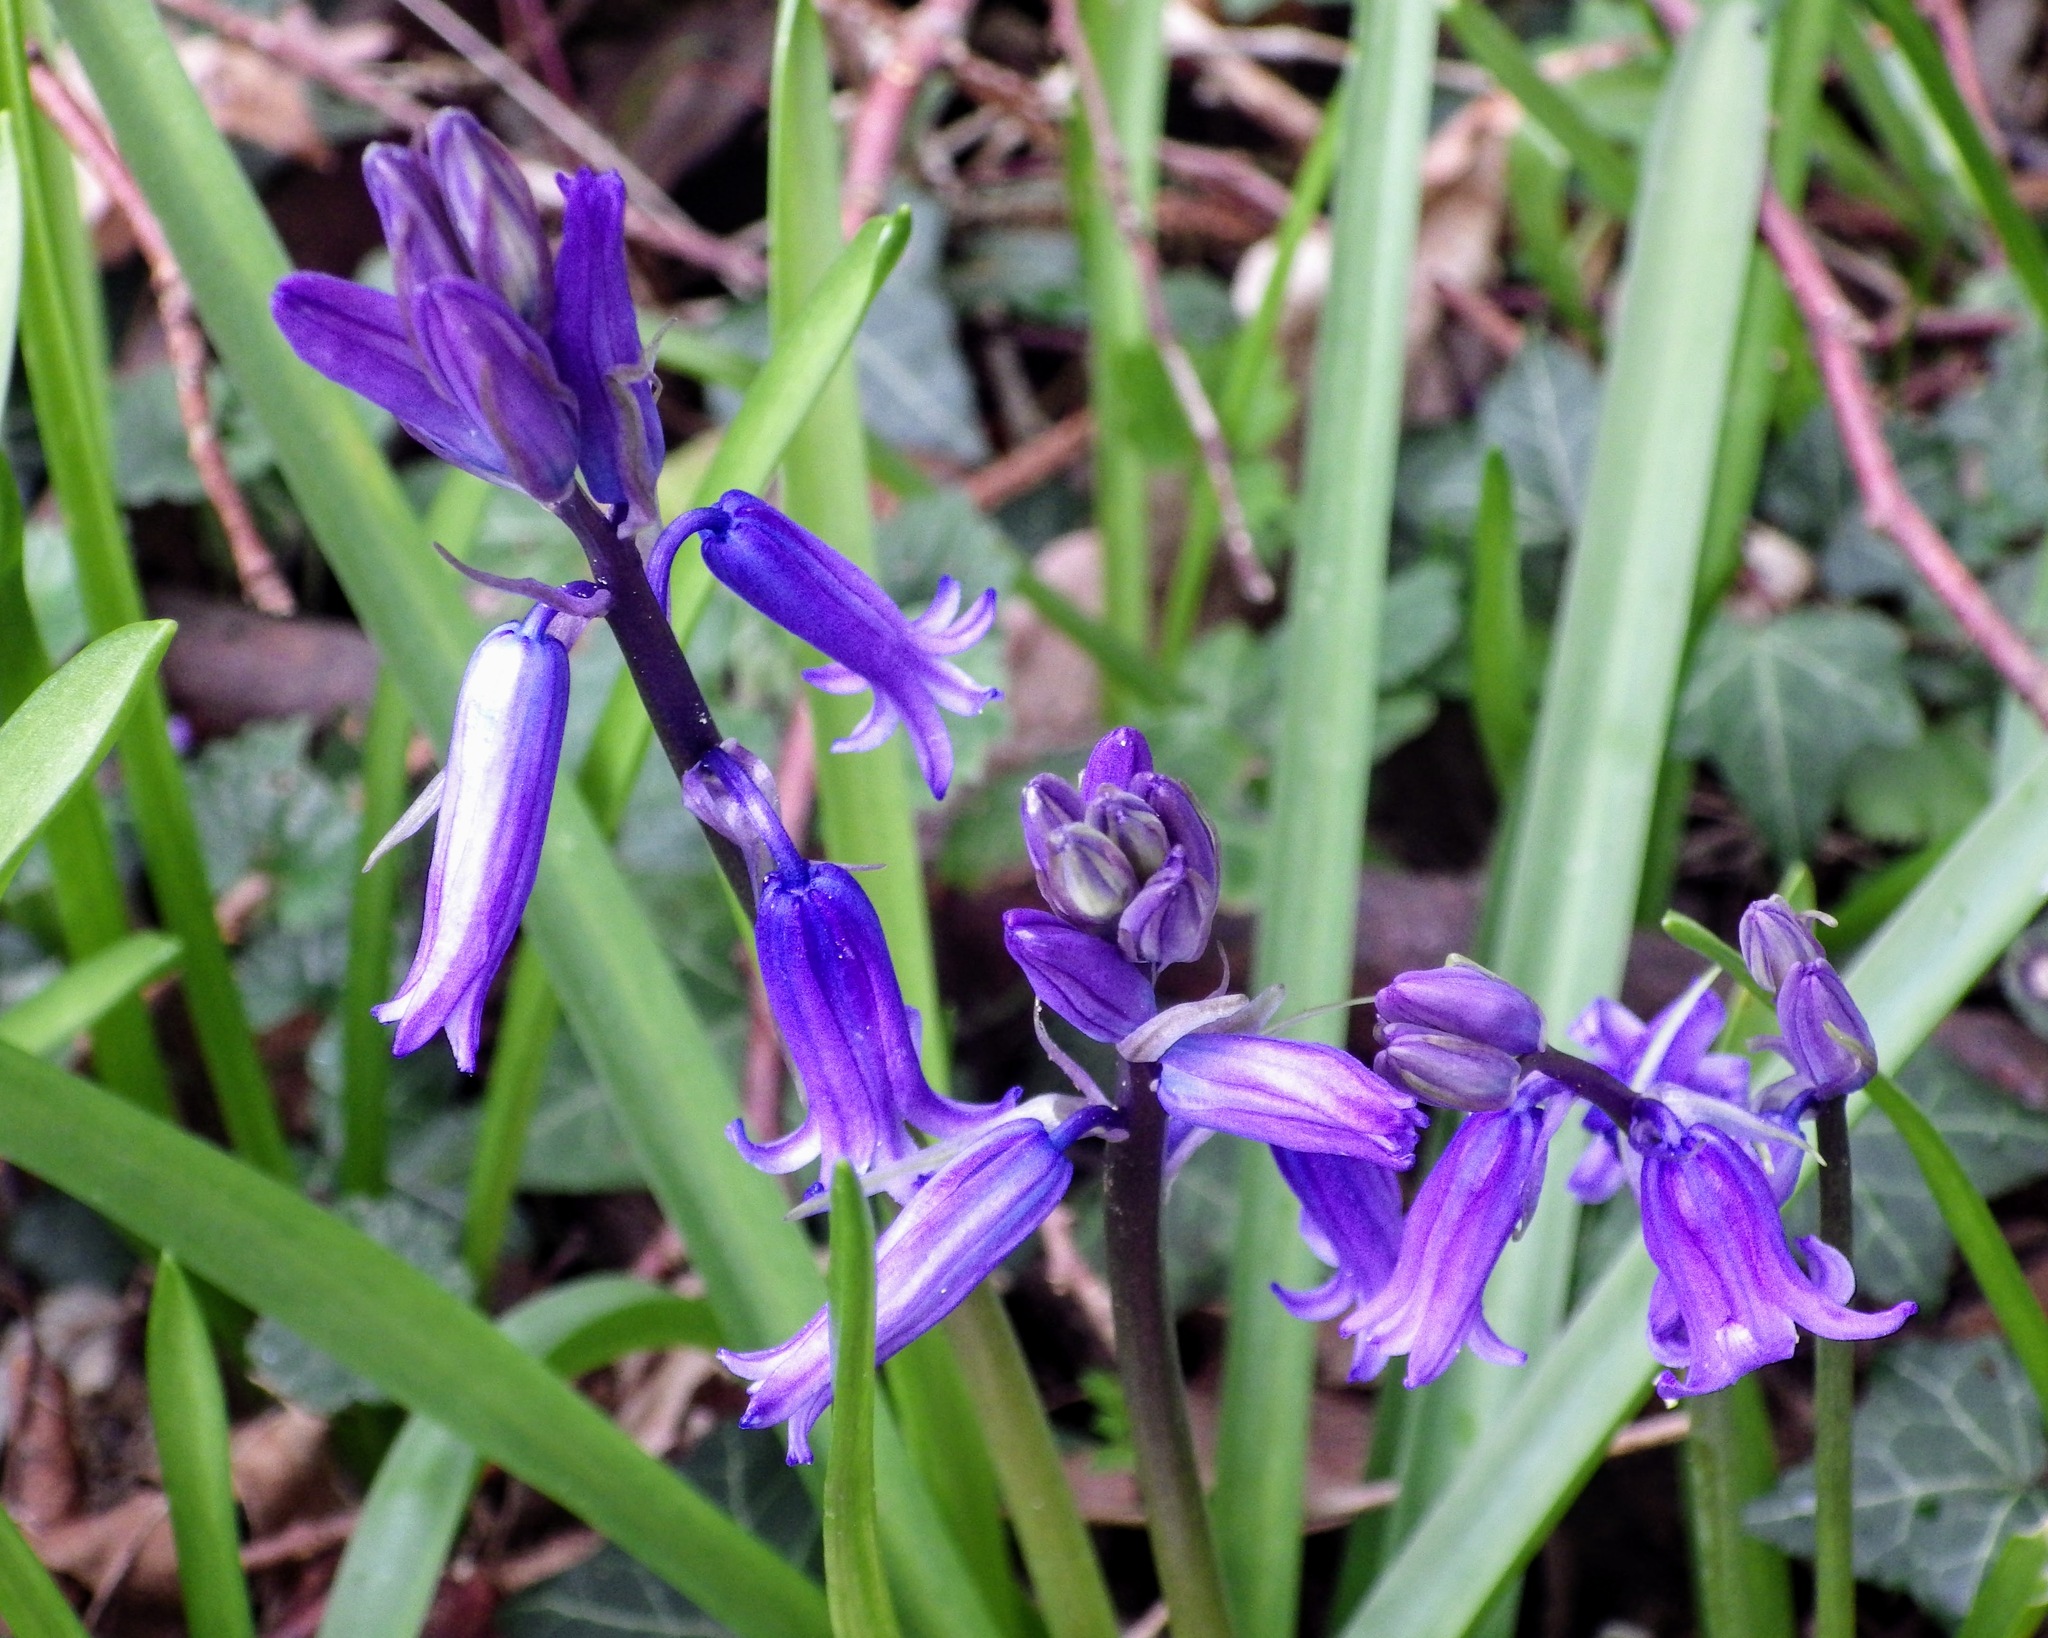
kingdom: Plantae
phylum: Tracheophyta
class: Liliopsida
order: Asparagales
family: Asparagaceae
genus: Hyacinthoides
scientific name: Hyacinthoides non-scripta
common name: Bluebell
